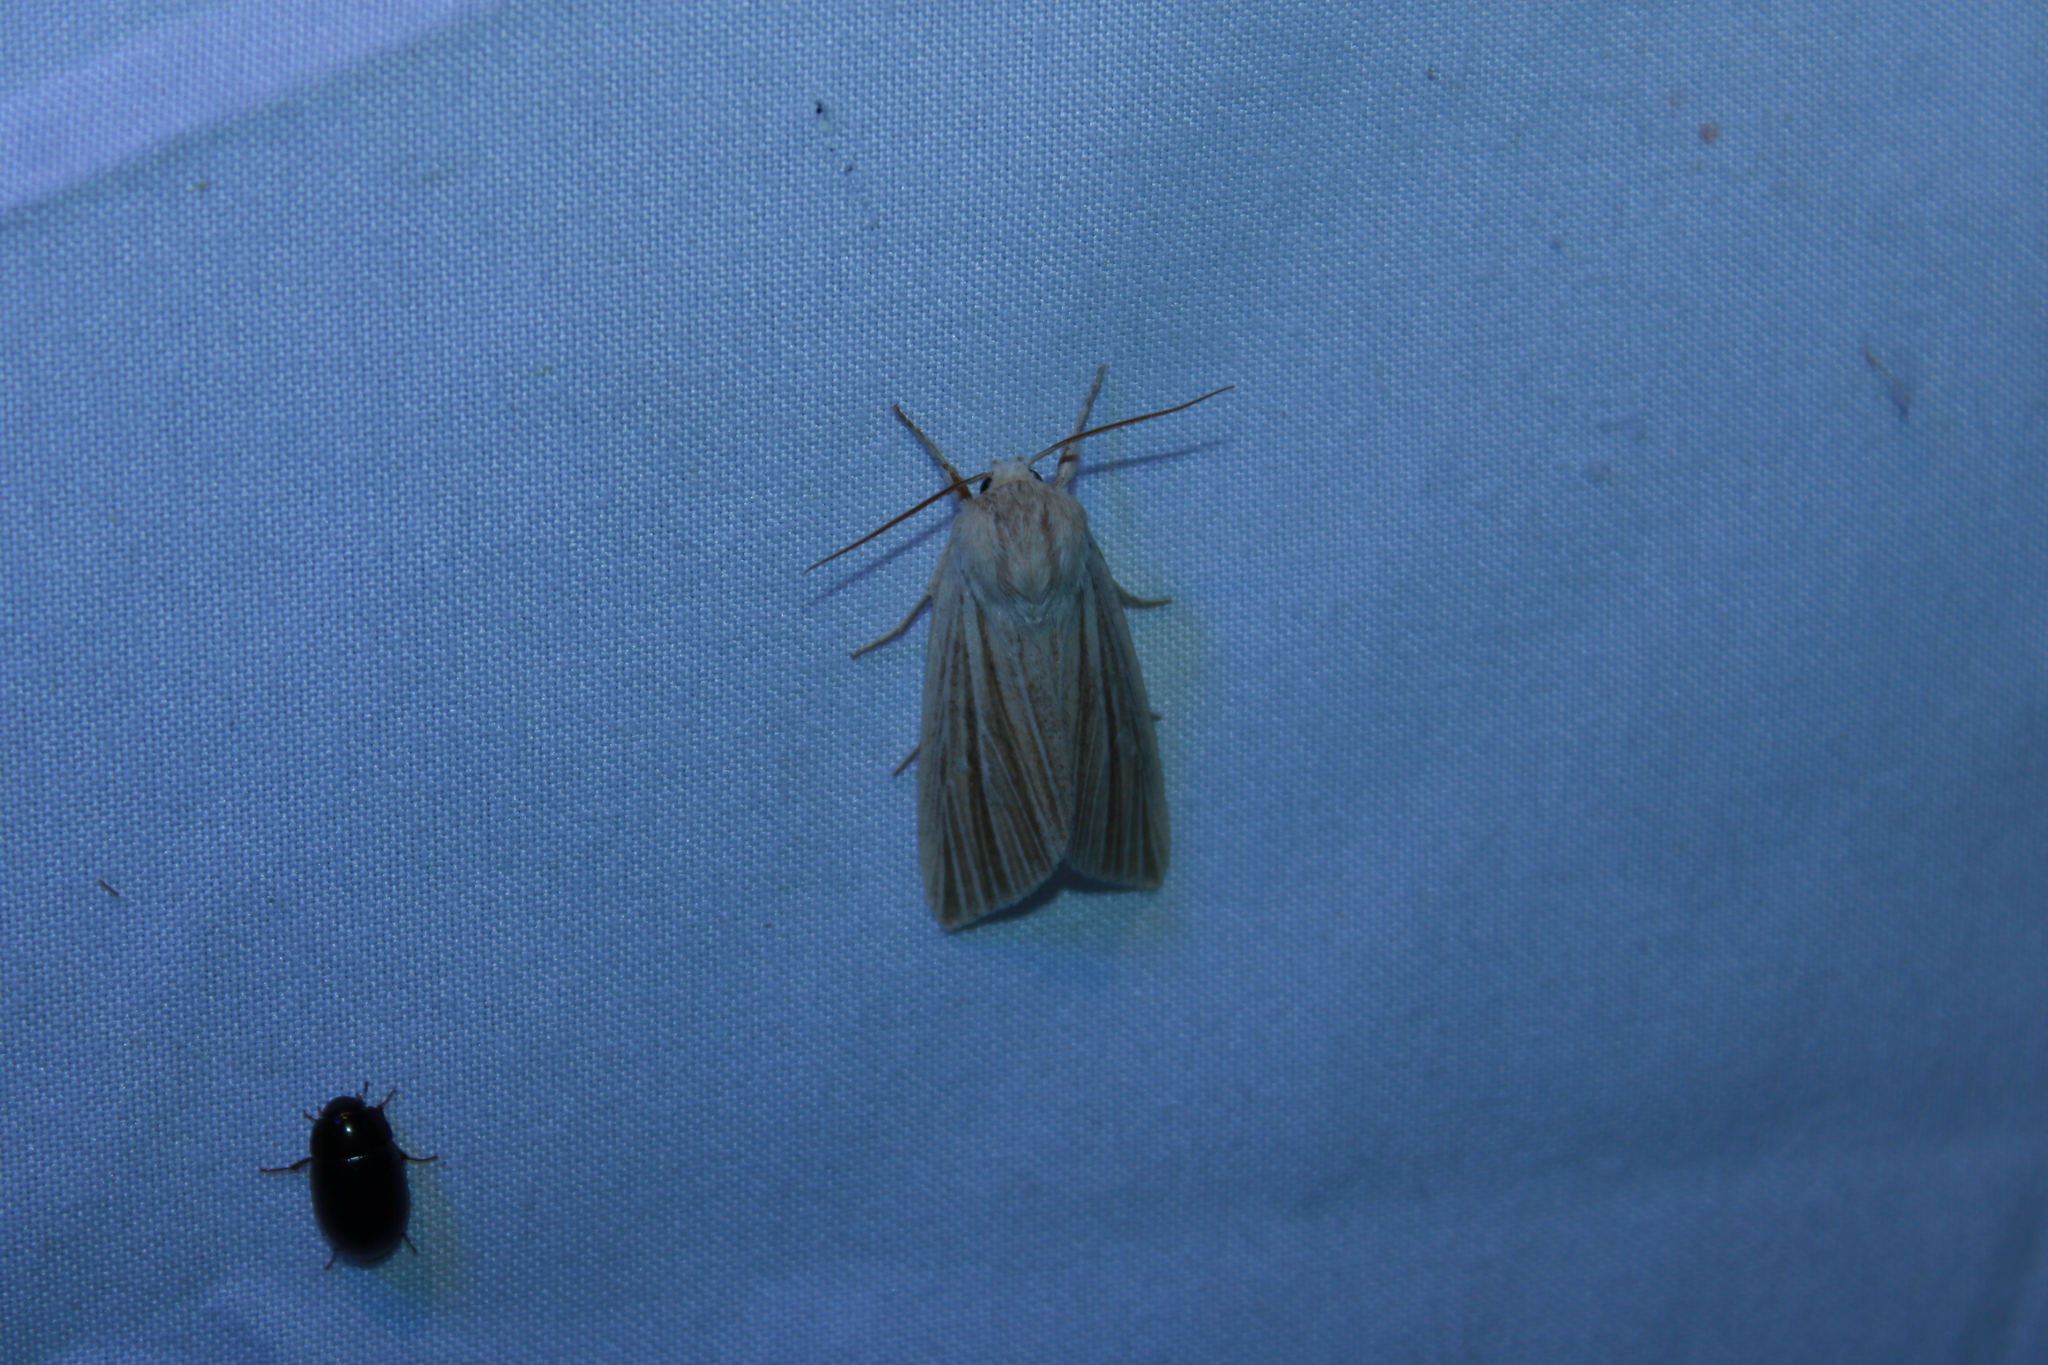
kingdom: Animalia
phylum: Arthropoda
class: Insecta
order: Lepidoptera
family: Noctuidae
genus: Acronicta
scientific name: Acronicta insularis
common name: Henry's marsh moth
